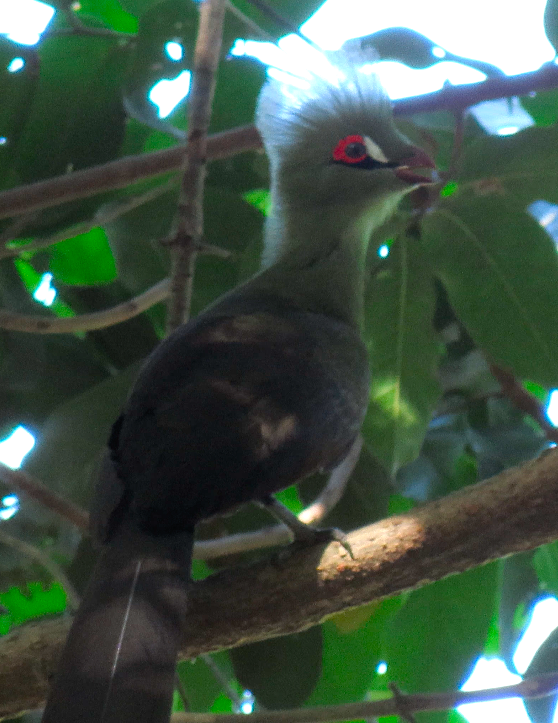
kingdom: Animalia
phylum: Chordata
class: Aves
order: Musophagiformes
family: Musophagidae
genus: Tauraco
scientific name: Tauraco persa
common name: Guinea turaco
